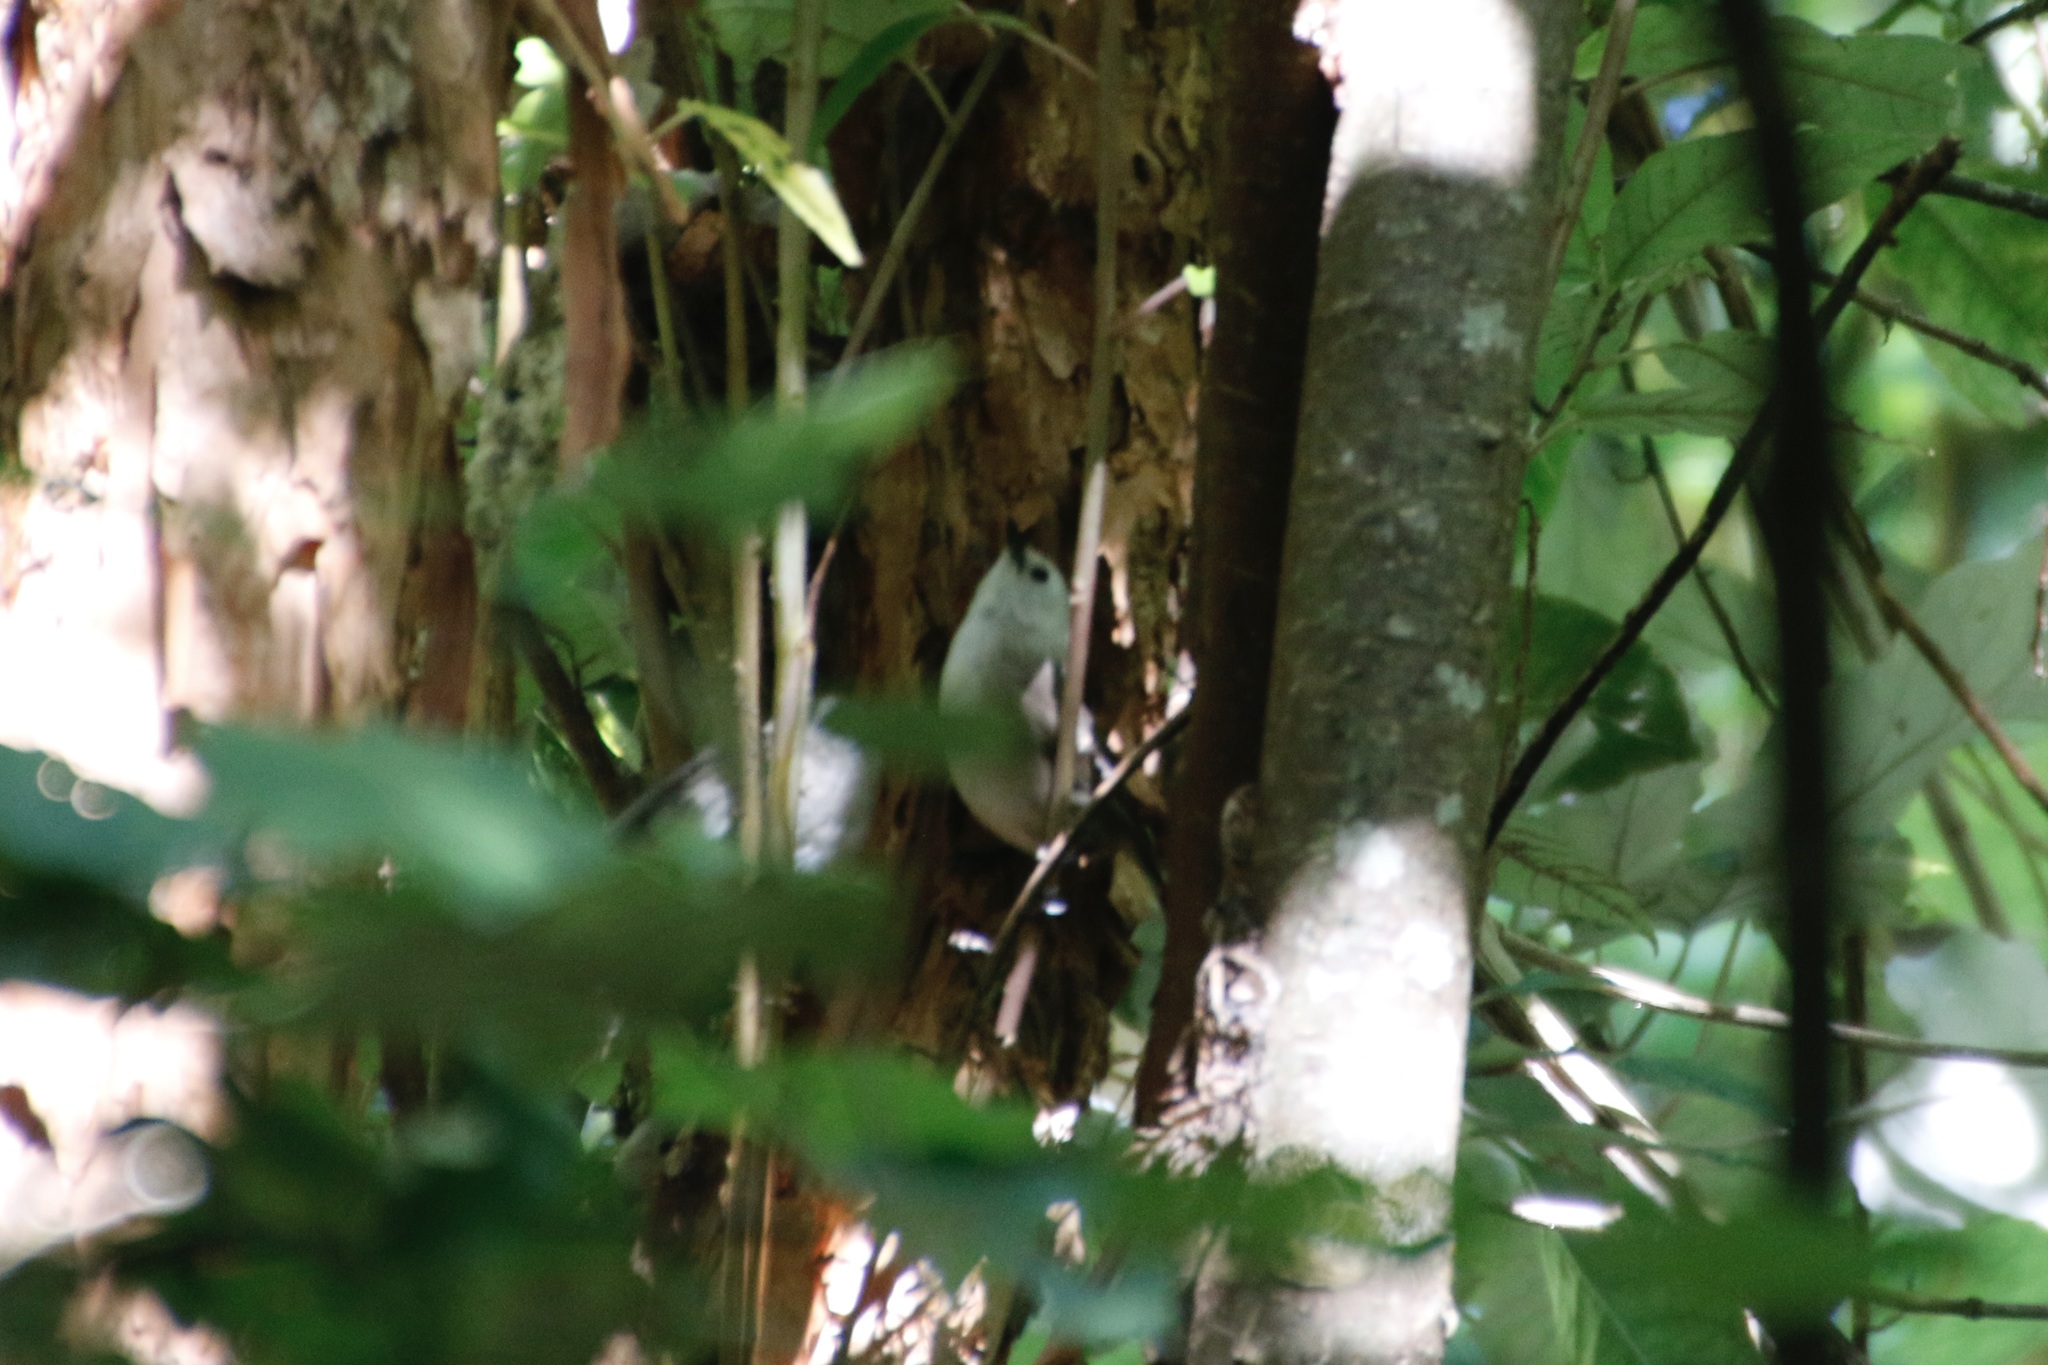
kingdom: Animalia
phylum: Chordata
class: Aves
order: Passeriformes
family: Acanthizidae
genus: Mohoua
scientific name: Mohoua albicilla
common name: Whitehead
